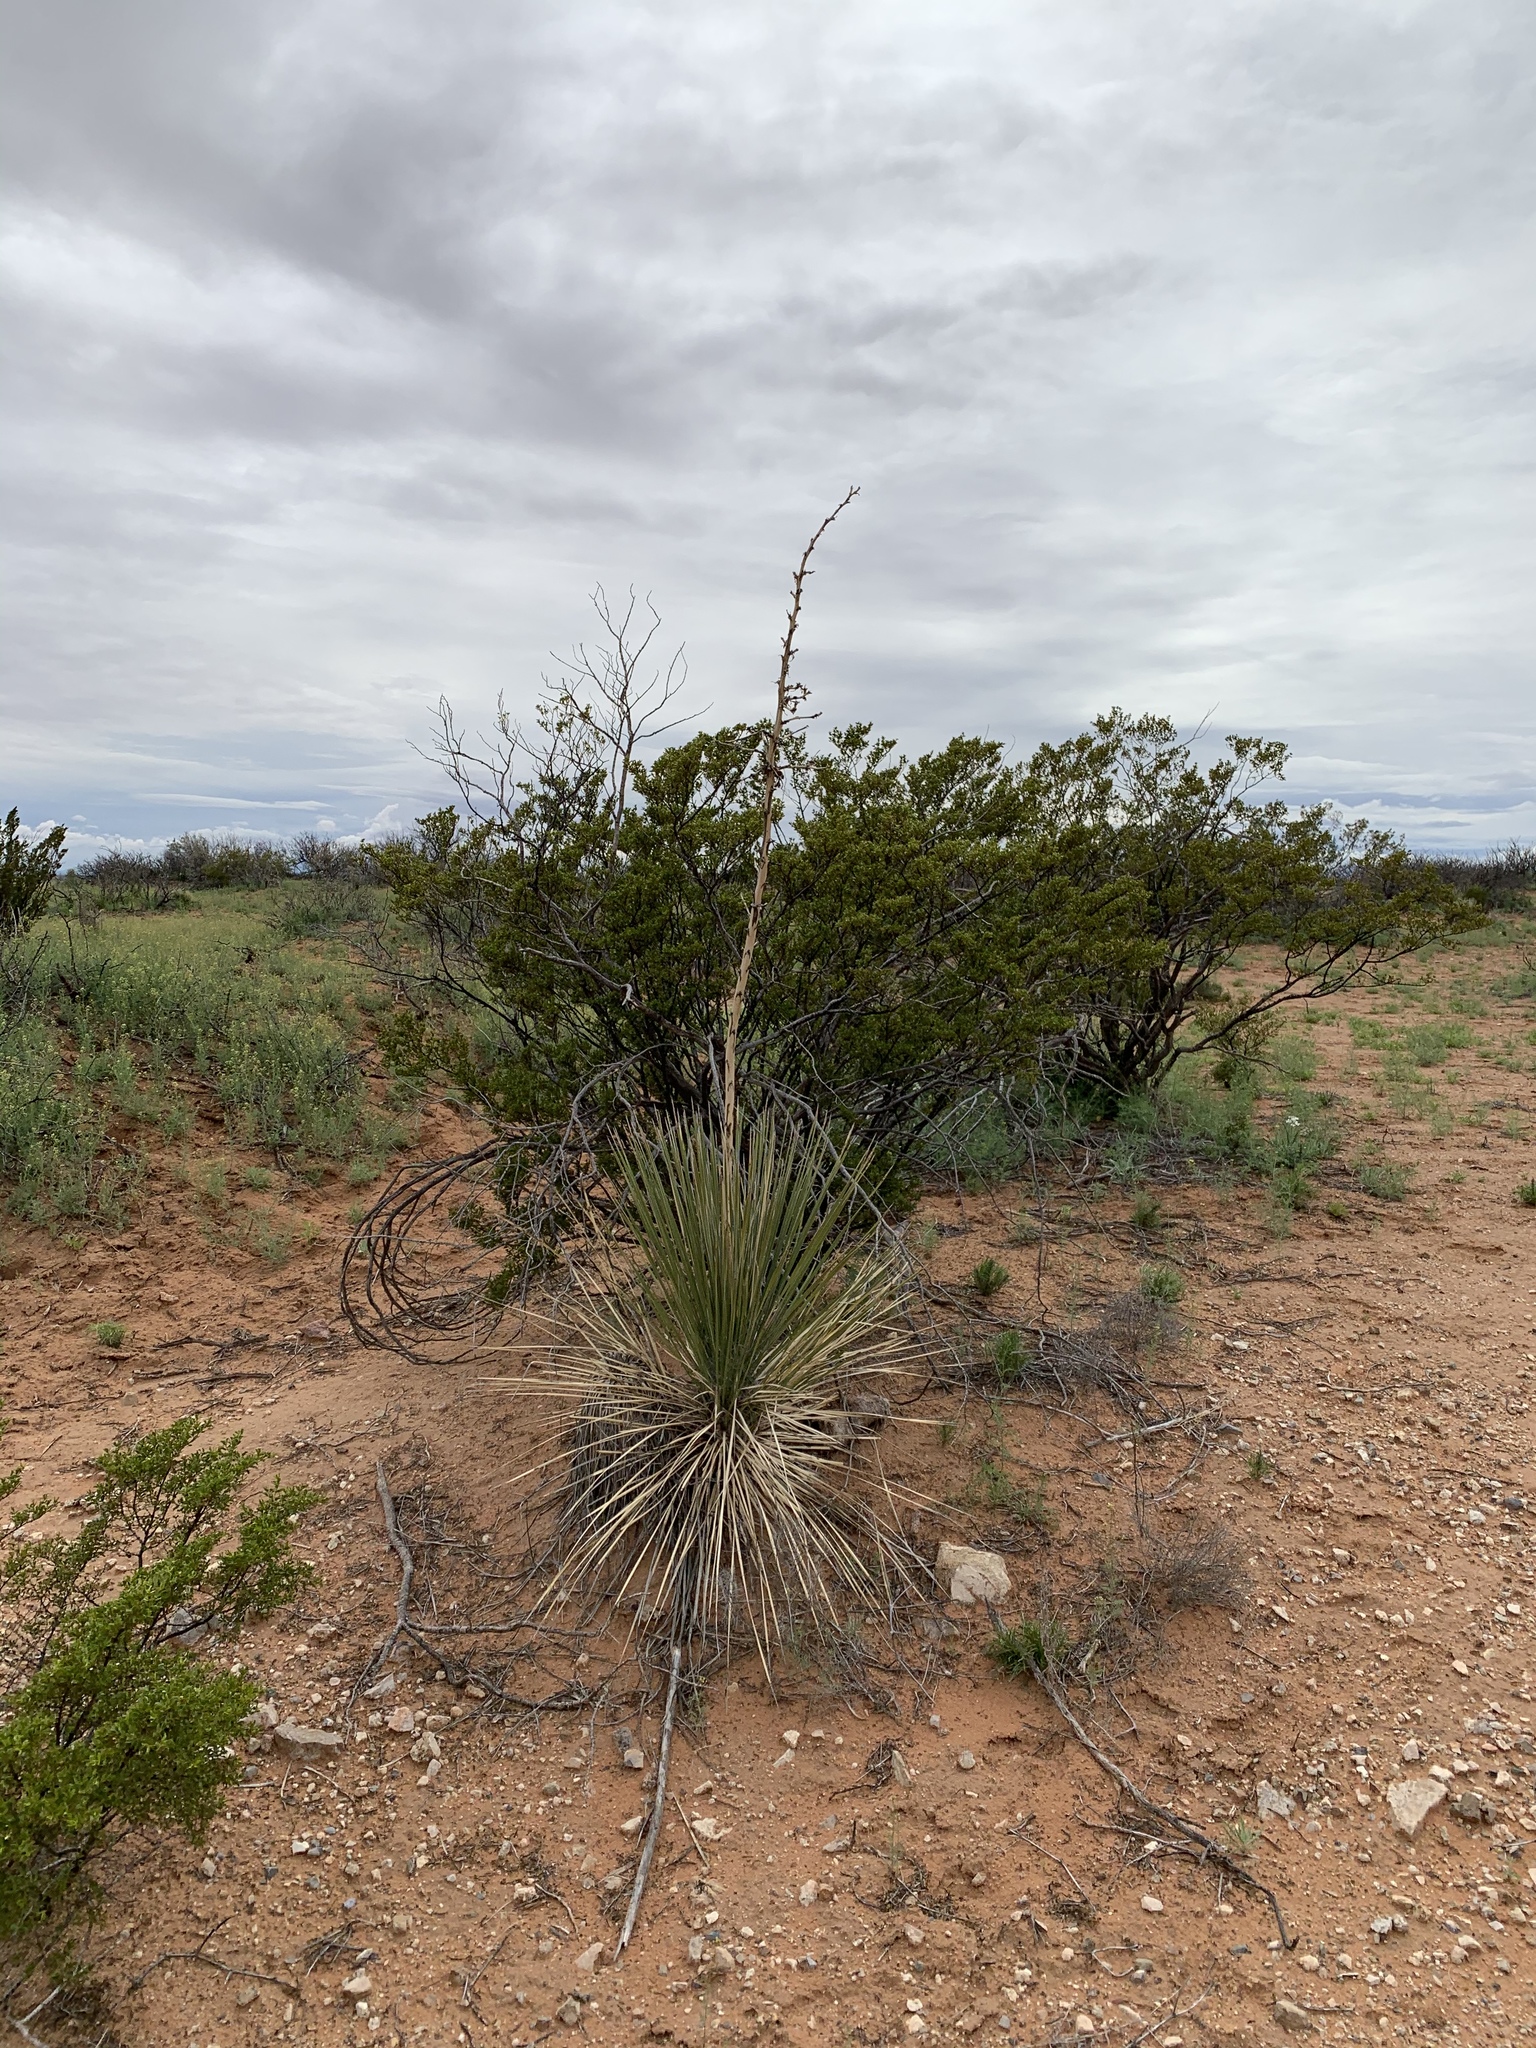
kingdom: Plantae
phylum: Tracheophyta
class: Liliopsida
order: Asparagales
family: Asparagaceae
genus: Yucca
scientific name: Yucca elata
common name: Palmella
